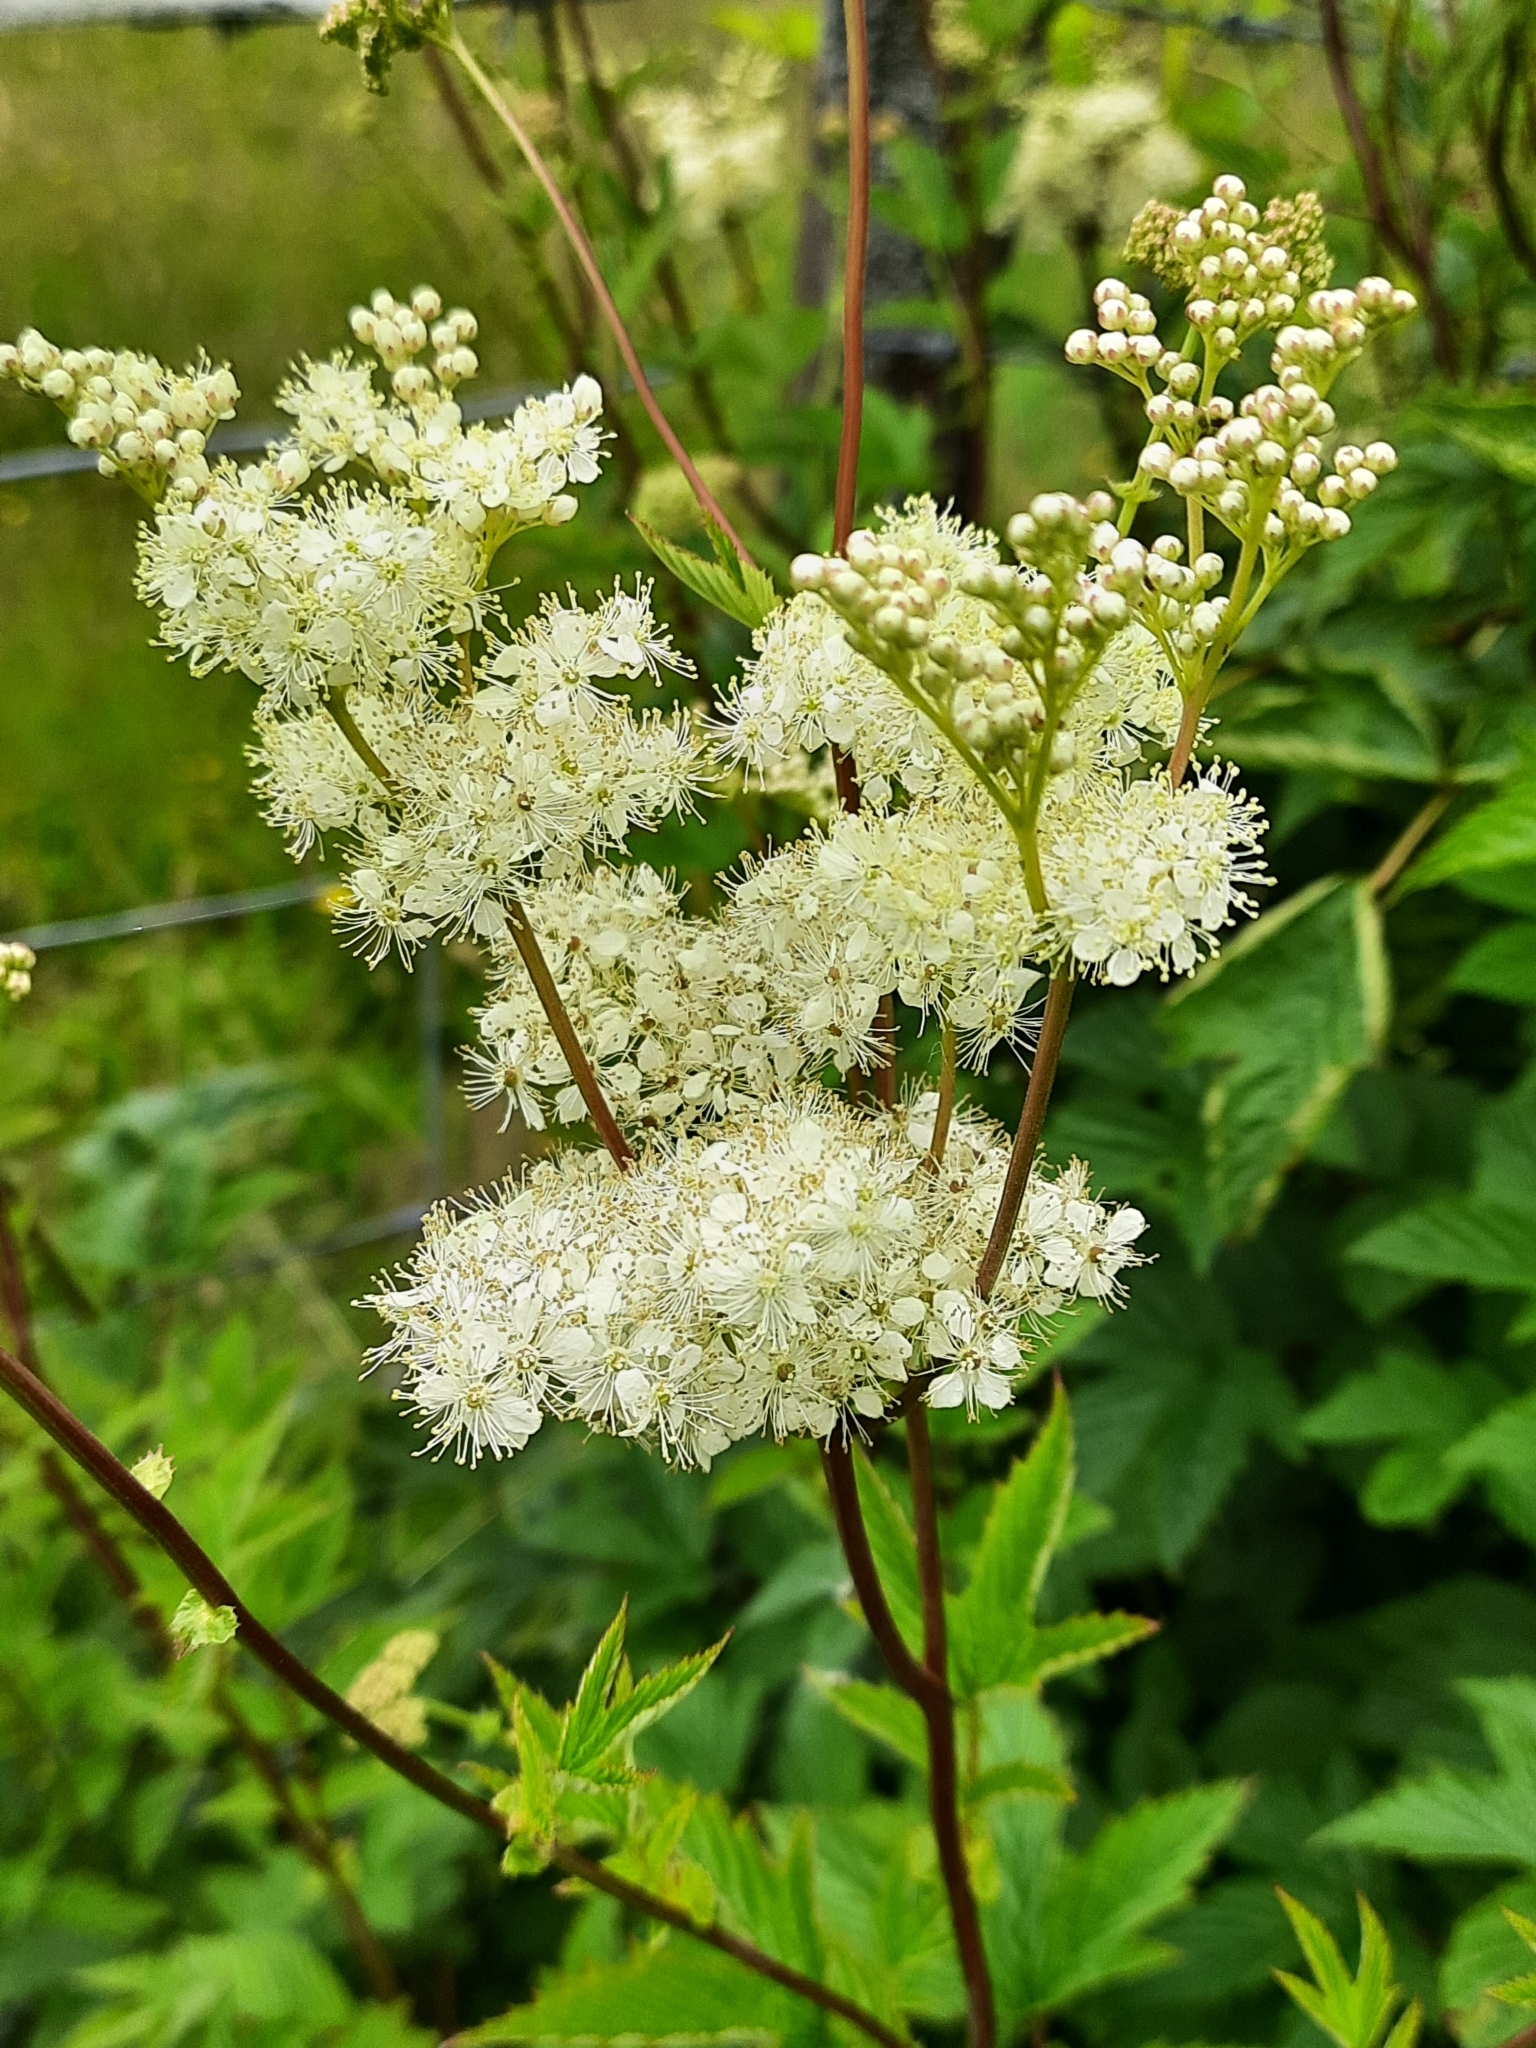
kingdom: Plantae
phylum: Tracheophyta
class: Magnoliopsida
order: Rosales
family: Rosaceae
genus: Filipendula
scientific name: Filipendula ulmaria
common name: Meadowsweet
